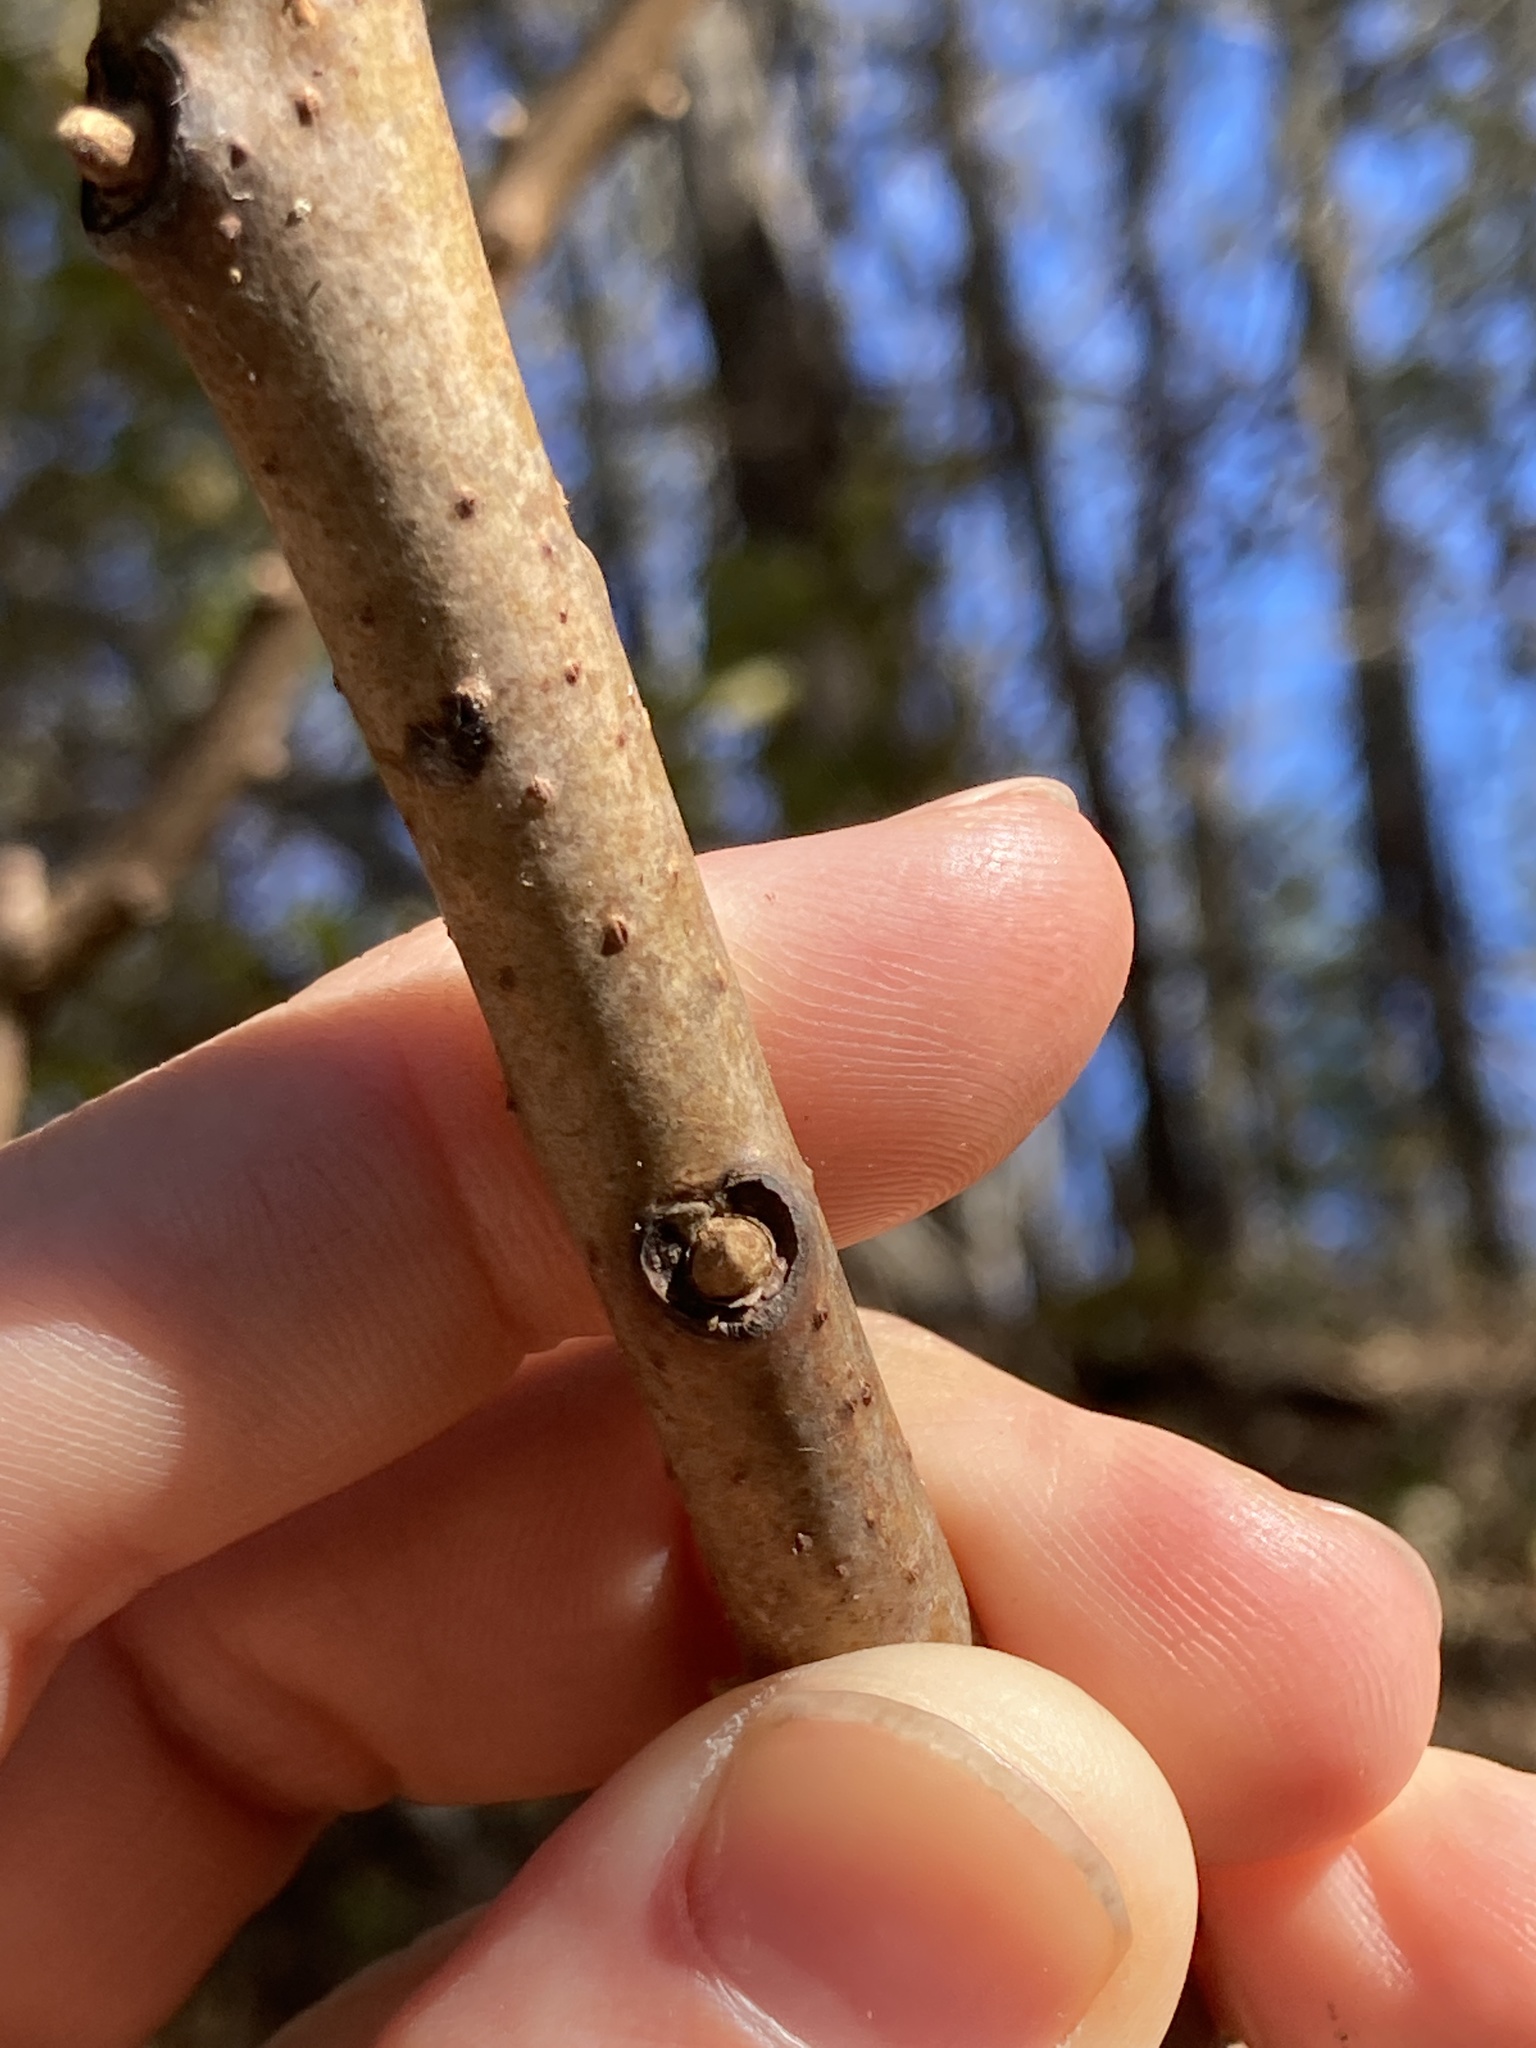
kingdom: Plantae
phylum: Tracheophyta
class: Magnoliopsida
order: Sapindales
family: Anacardiaceae
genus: Rhus
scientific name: Rhus glabra
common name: Scarlet sumac
